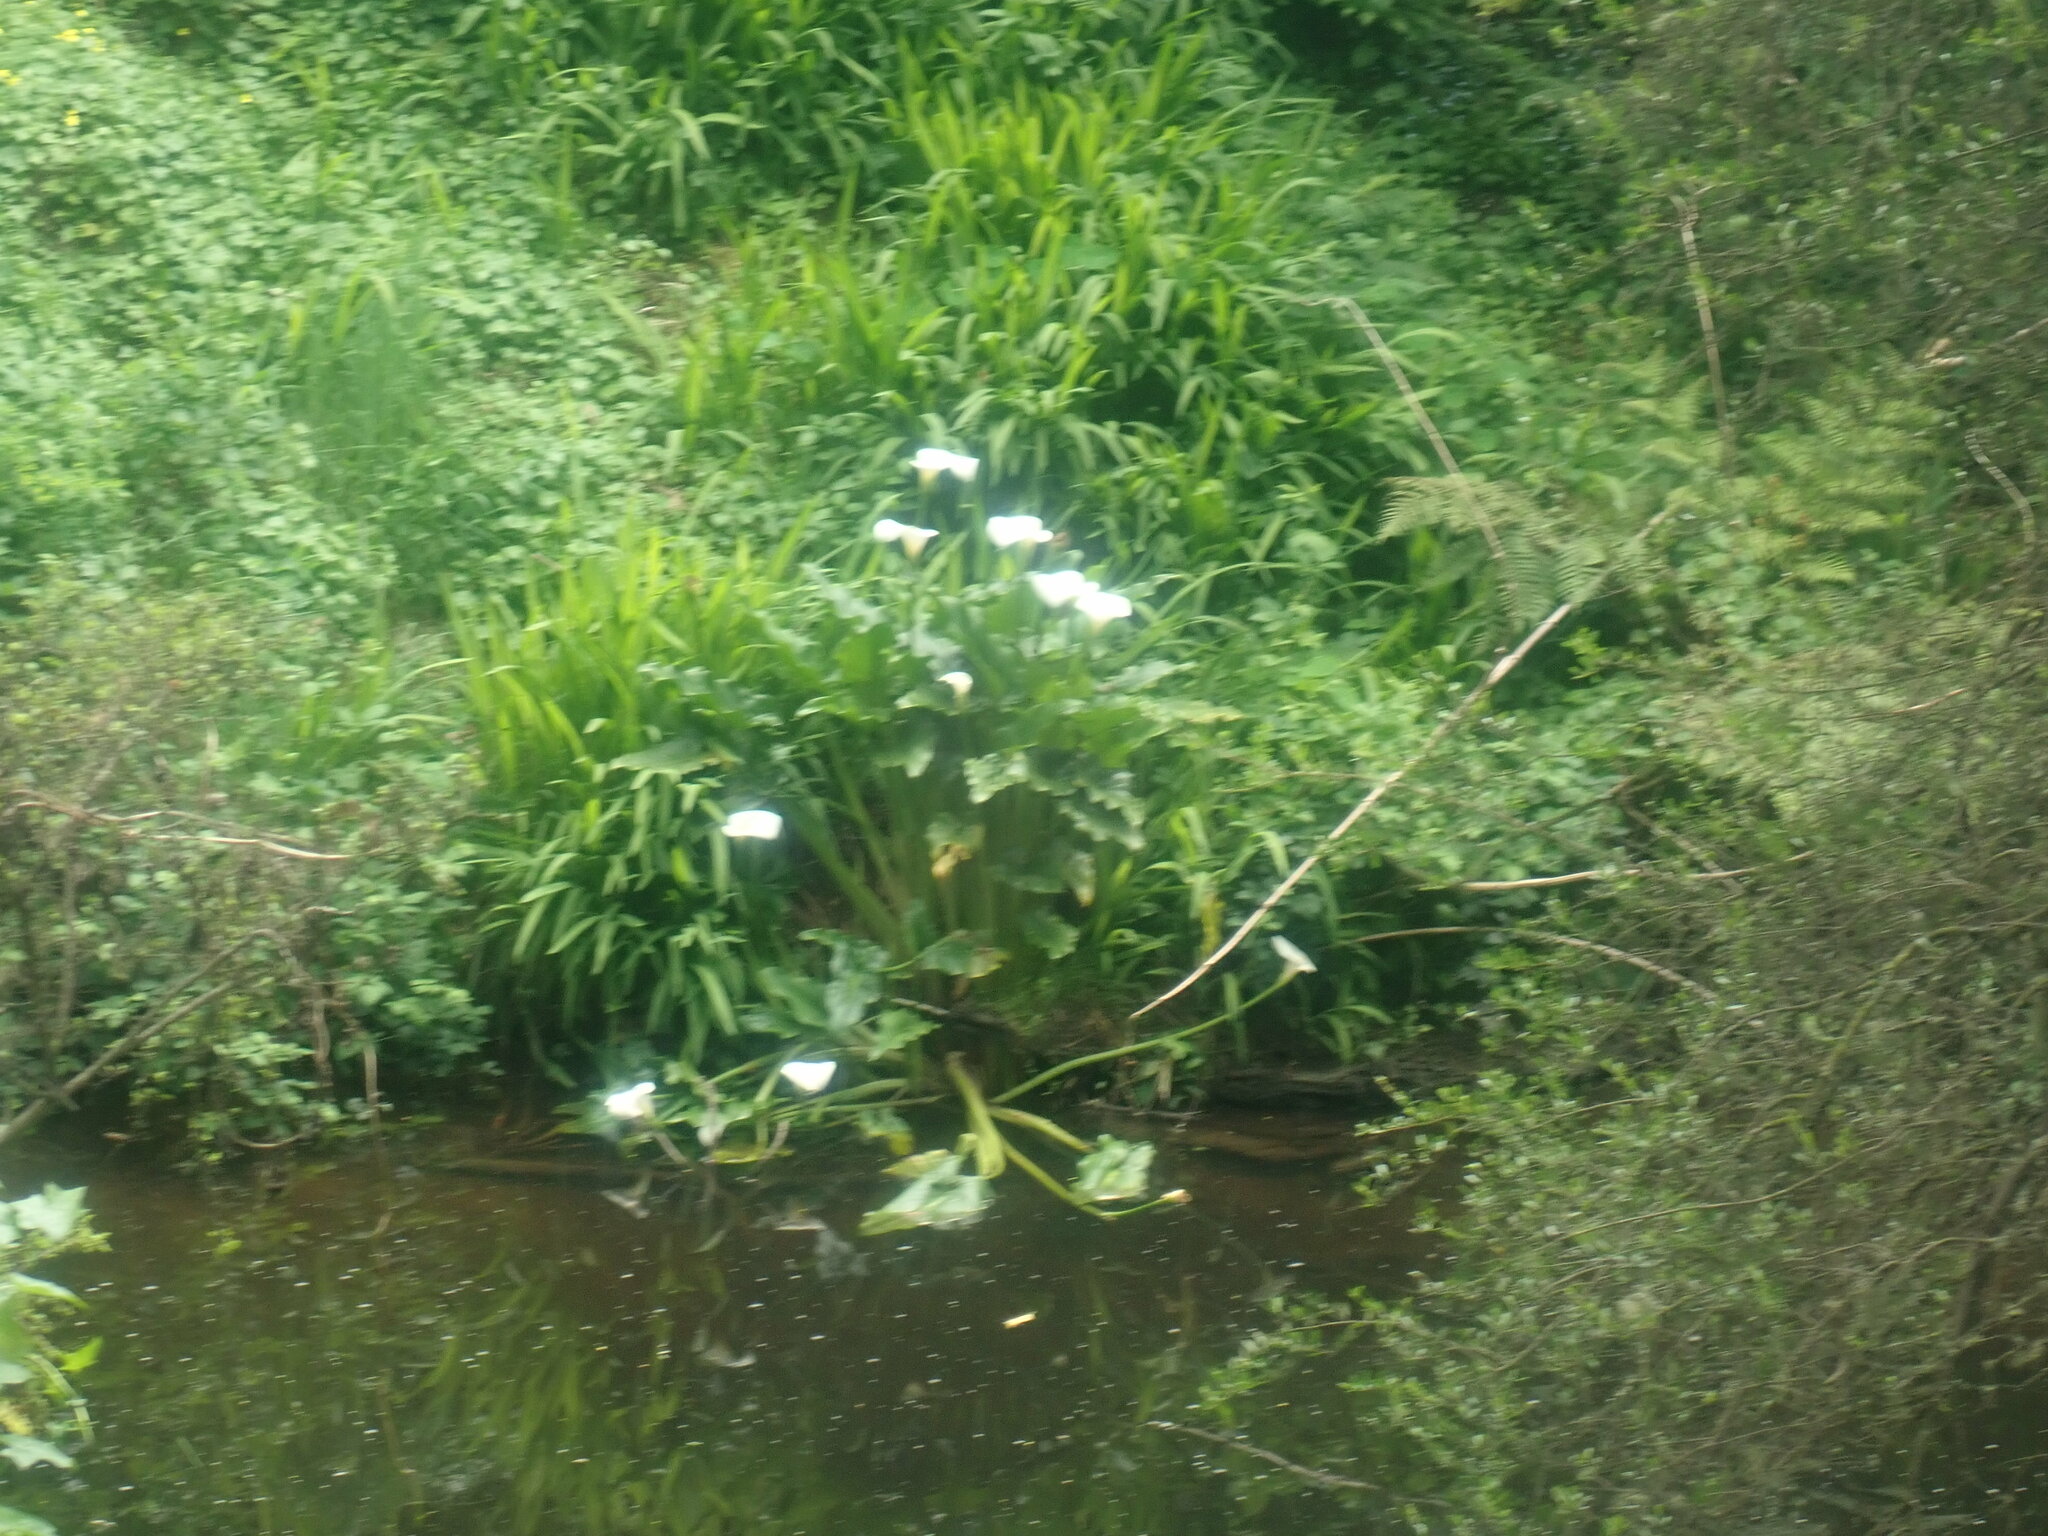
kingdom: Plantae
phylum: Tracheophyta
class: Liliopsida
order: Alismatales
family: Araceae
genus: Zantedeschia
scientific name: Zantedeschia aethiopica
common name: Altar-lily
